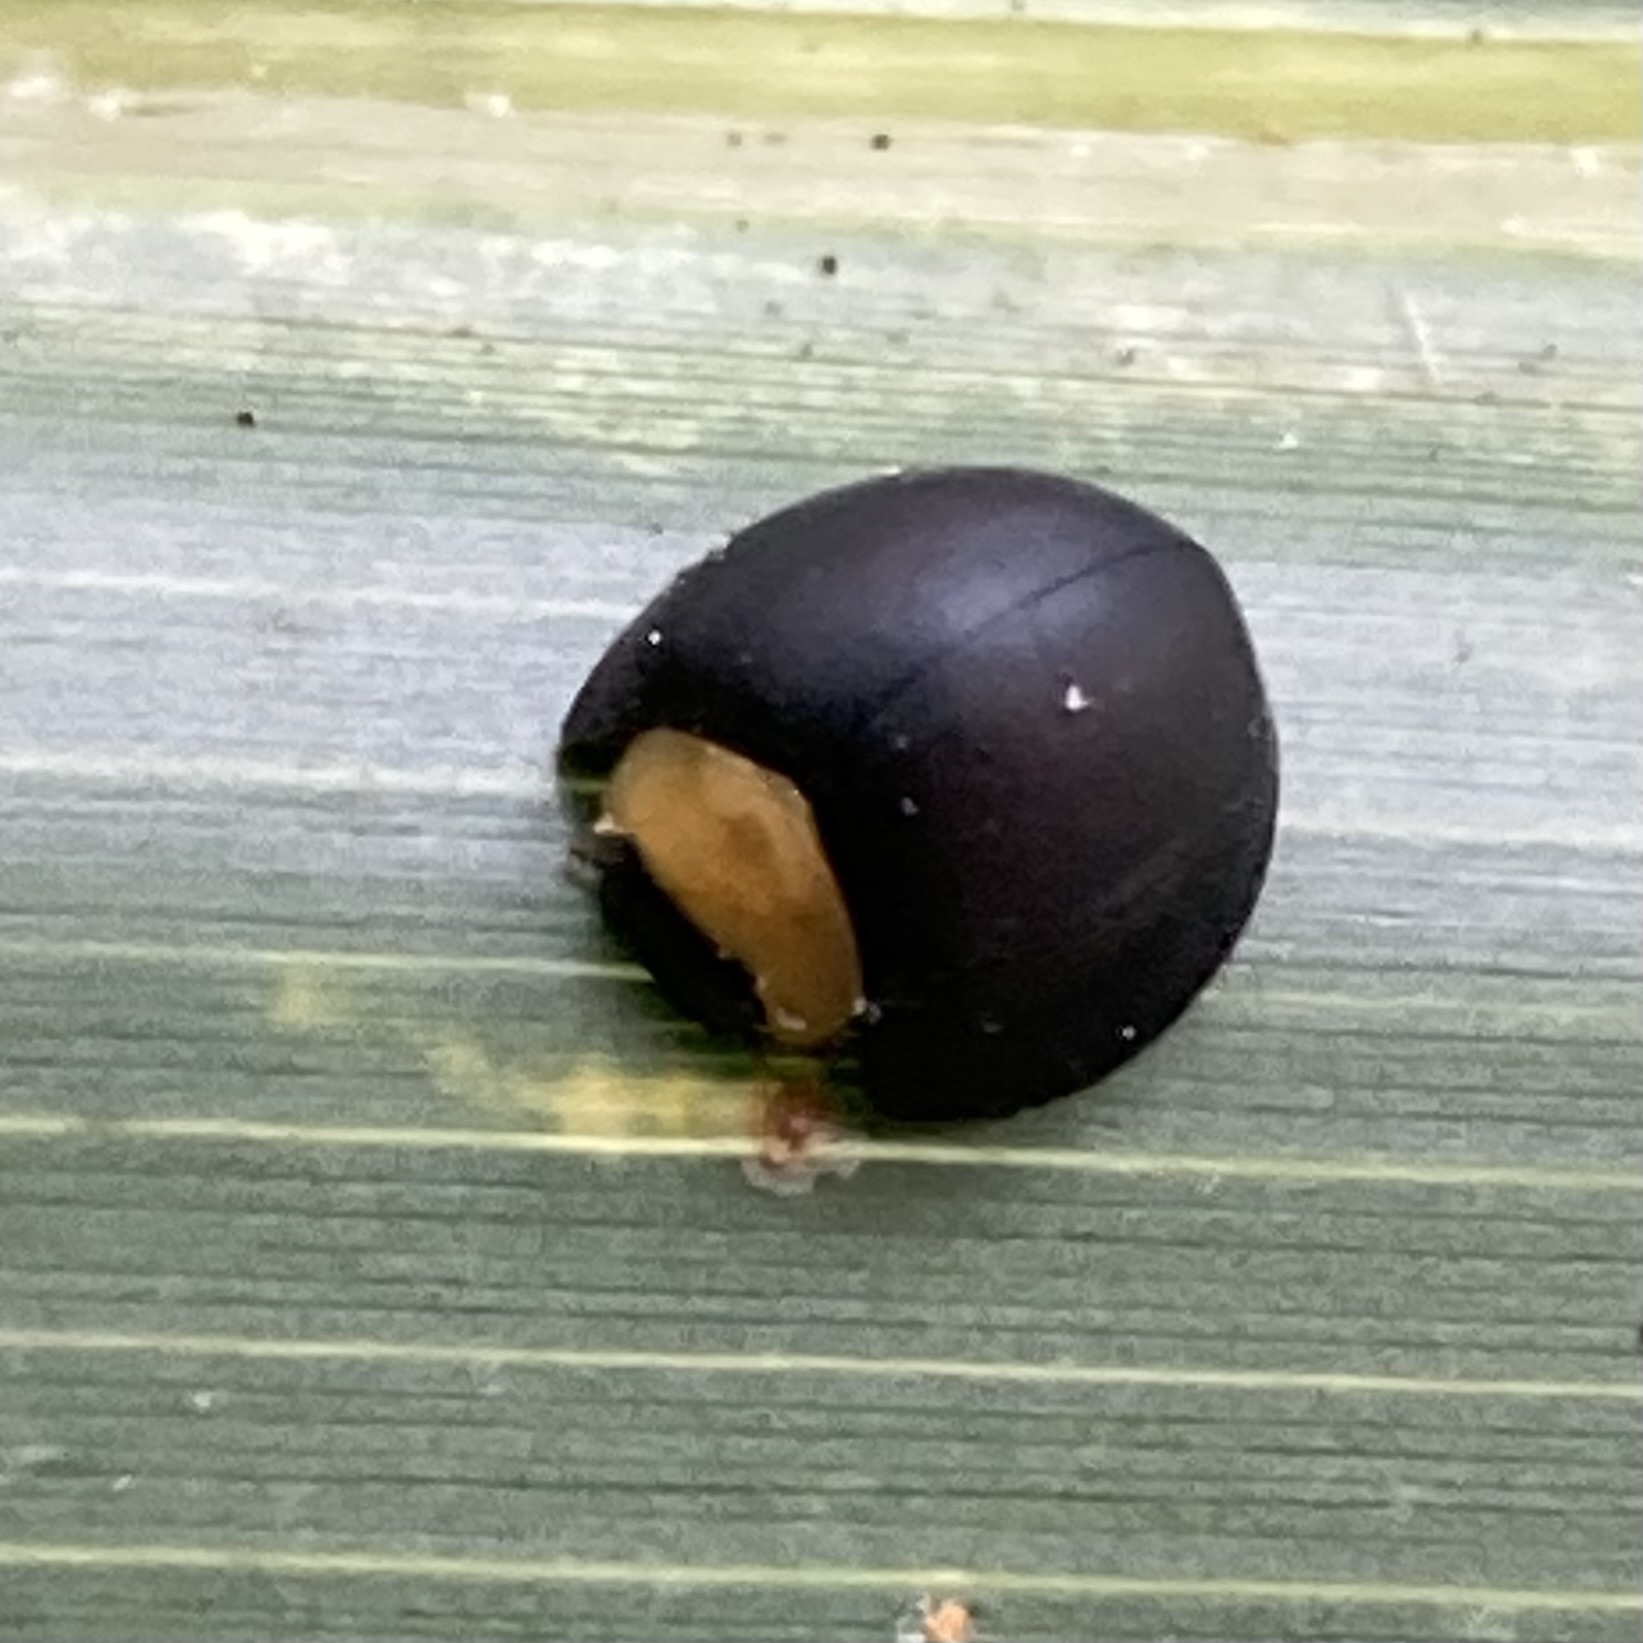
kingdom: Animalia
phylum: Arthropoda
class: Insecta
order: Coleoptera
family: Coccinellidae
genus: Egius
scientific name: Egius platycephalus
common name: Ladybird beetle
